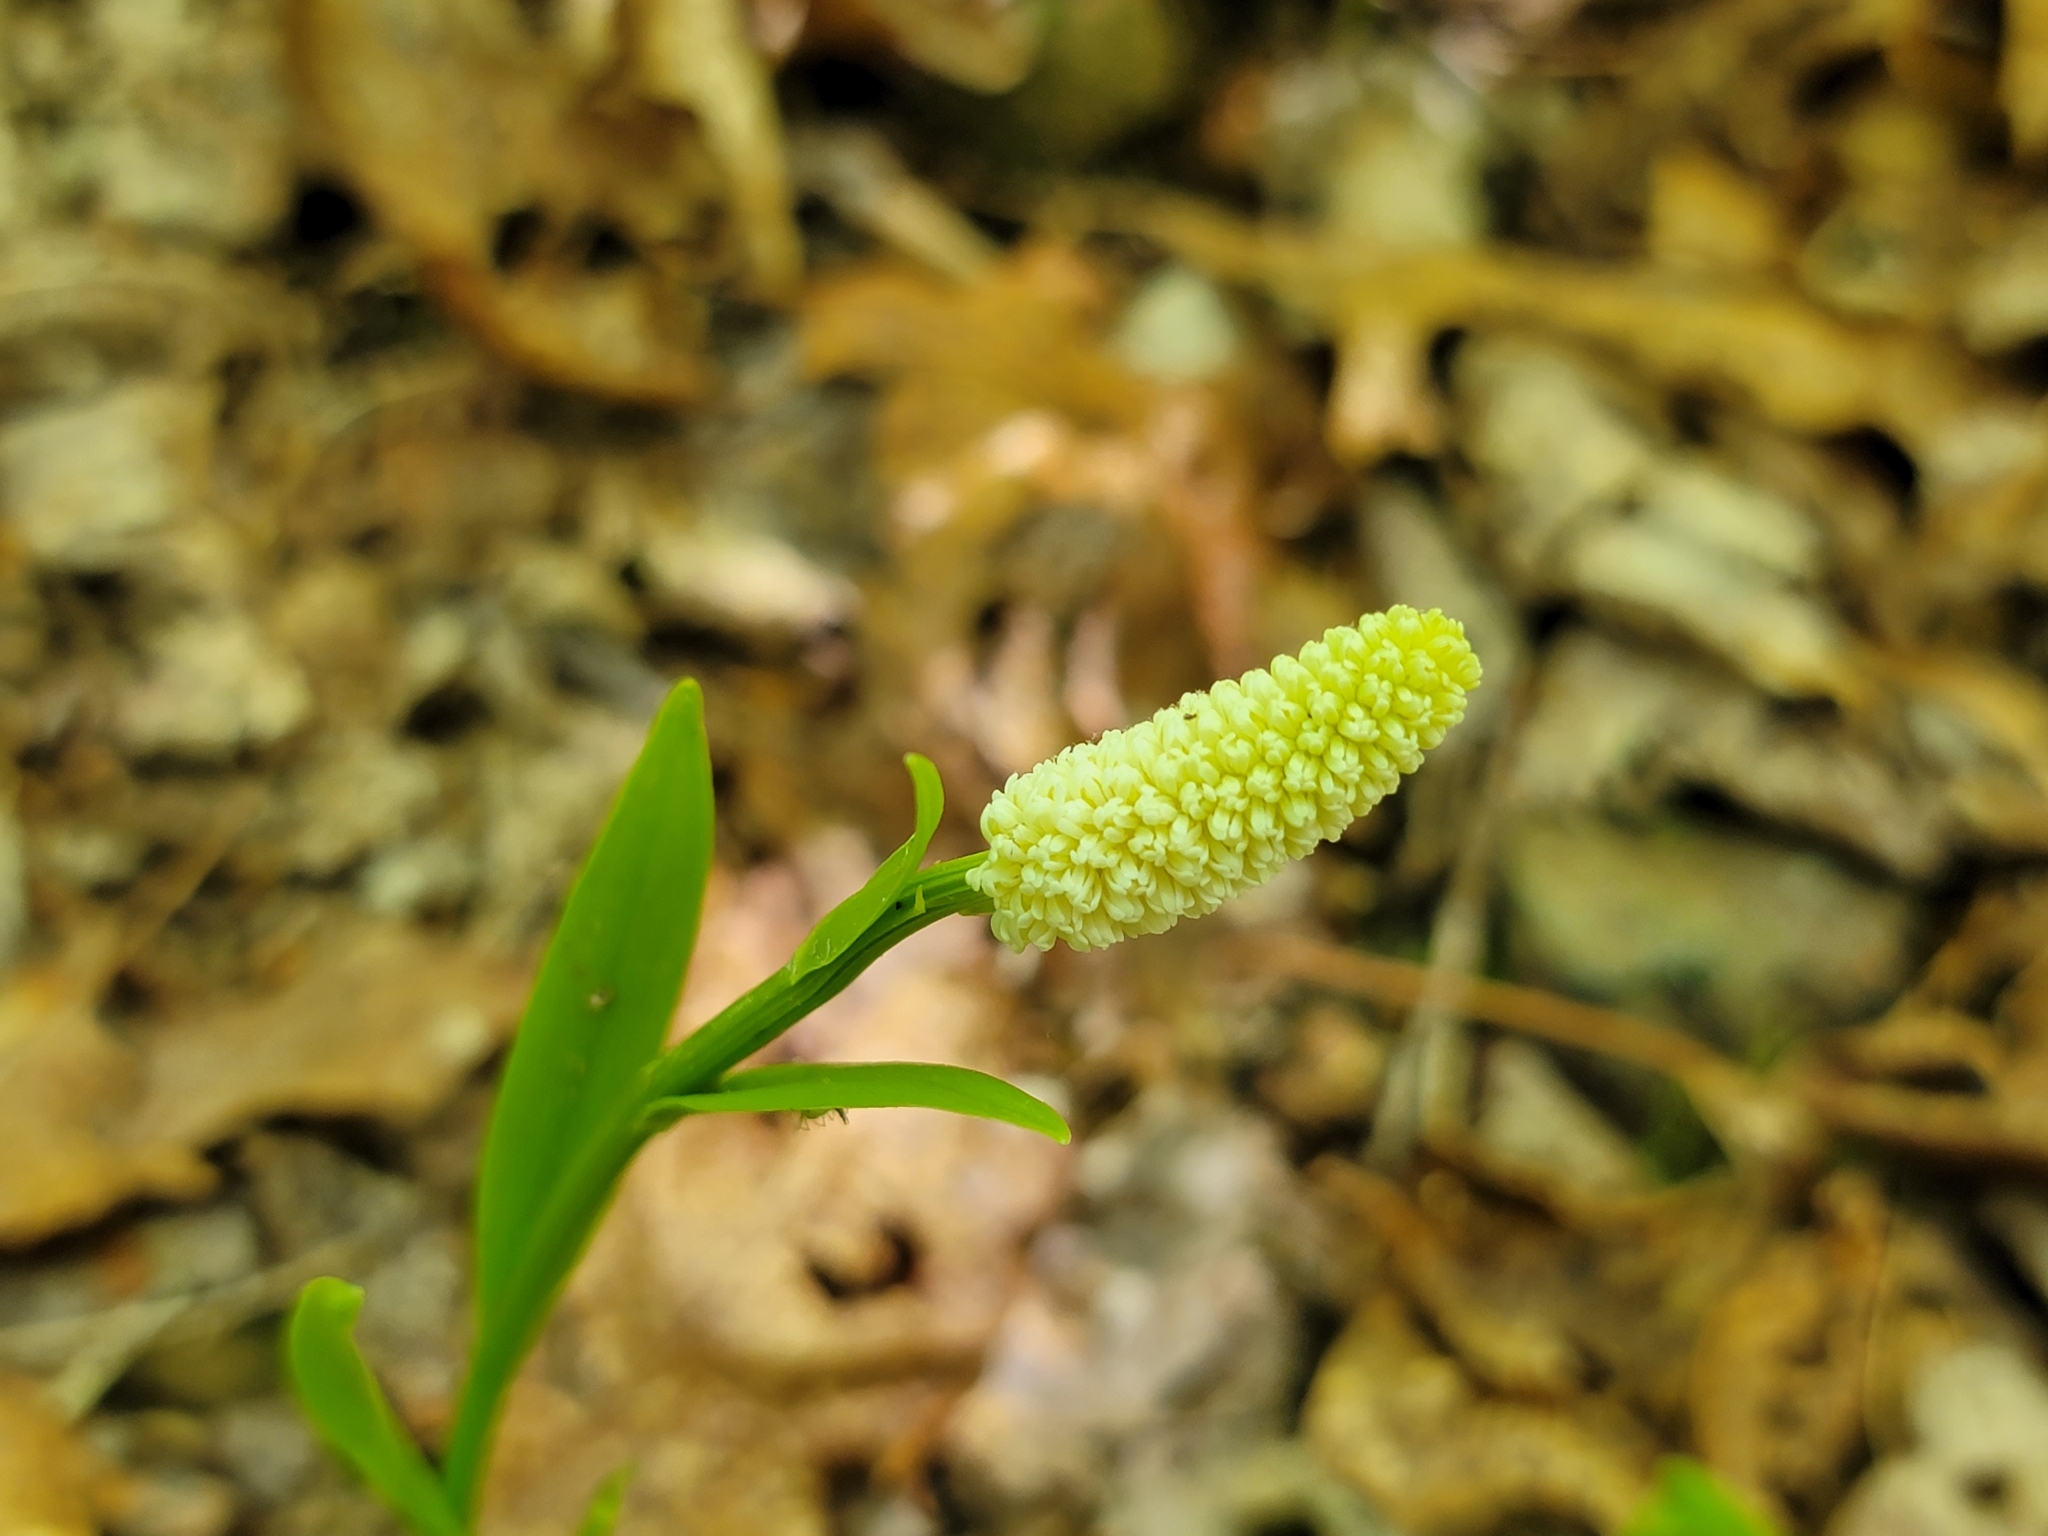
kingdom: Plantae
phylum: Tracheophyta
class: Liliopsida
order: Liliales
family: Melanthiaceae
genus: Chamaelirium
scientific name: Chamaelirium luteum
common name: Fairy-wand
